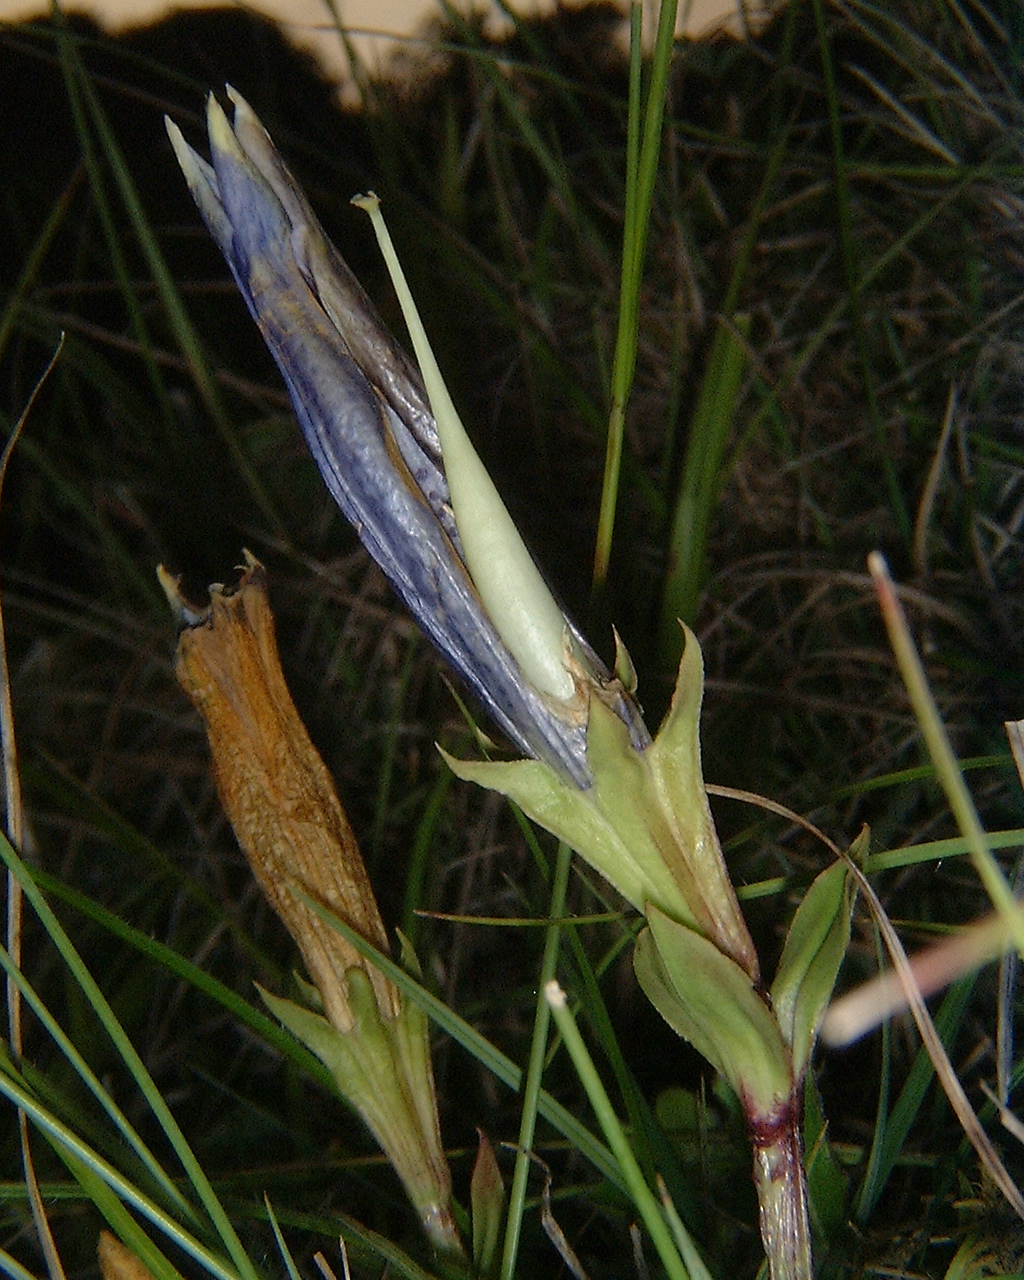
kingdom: Plantae
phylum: Tracheophyta
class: Magnoliopsida
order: Gentianales
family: Gentianaceae
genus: Gentiana
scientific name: Gentiana acaulis
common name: Trumpet gentian
